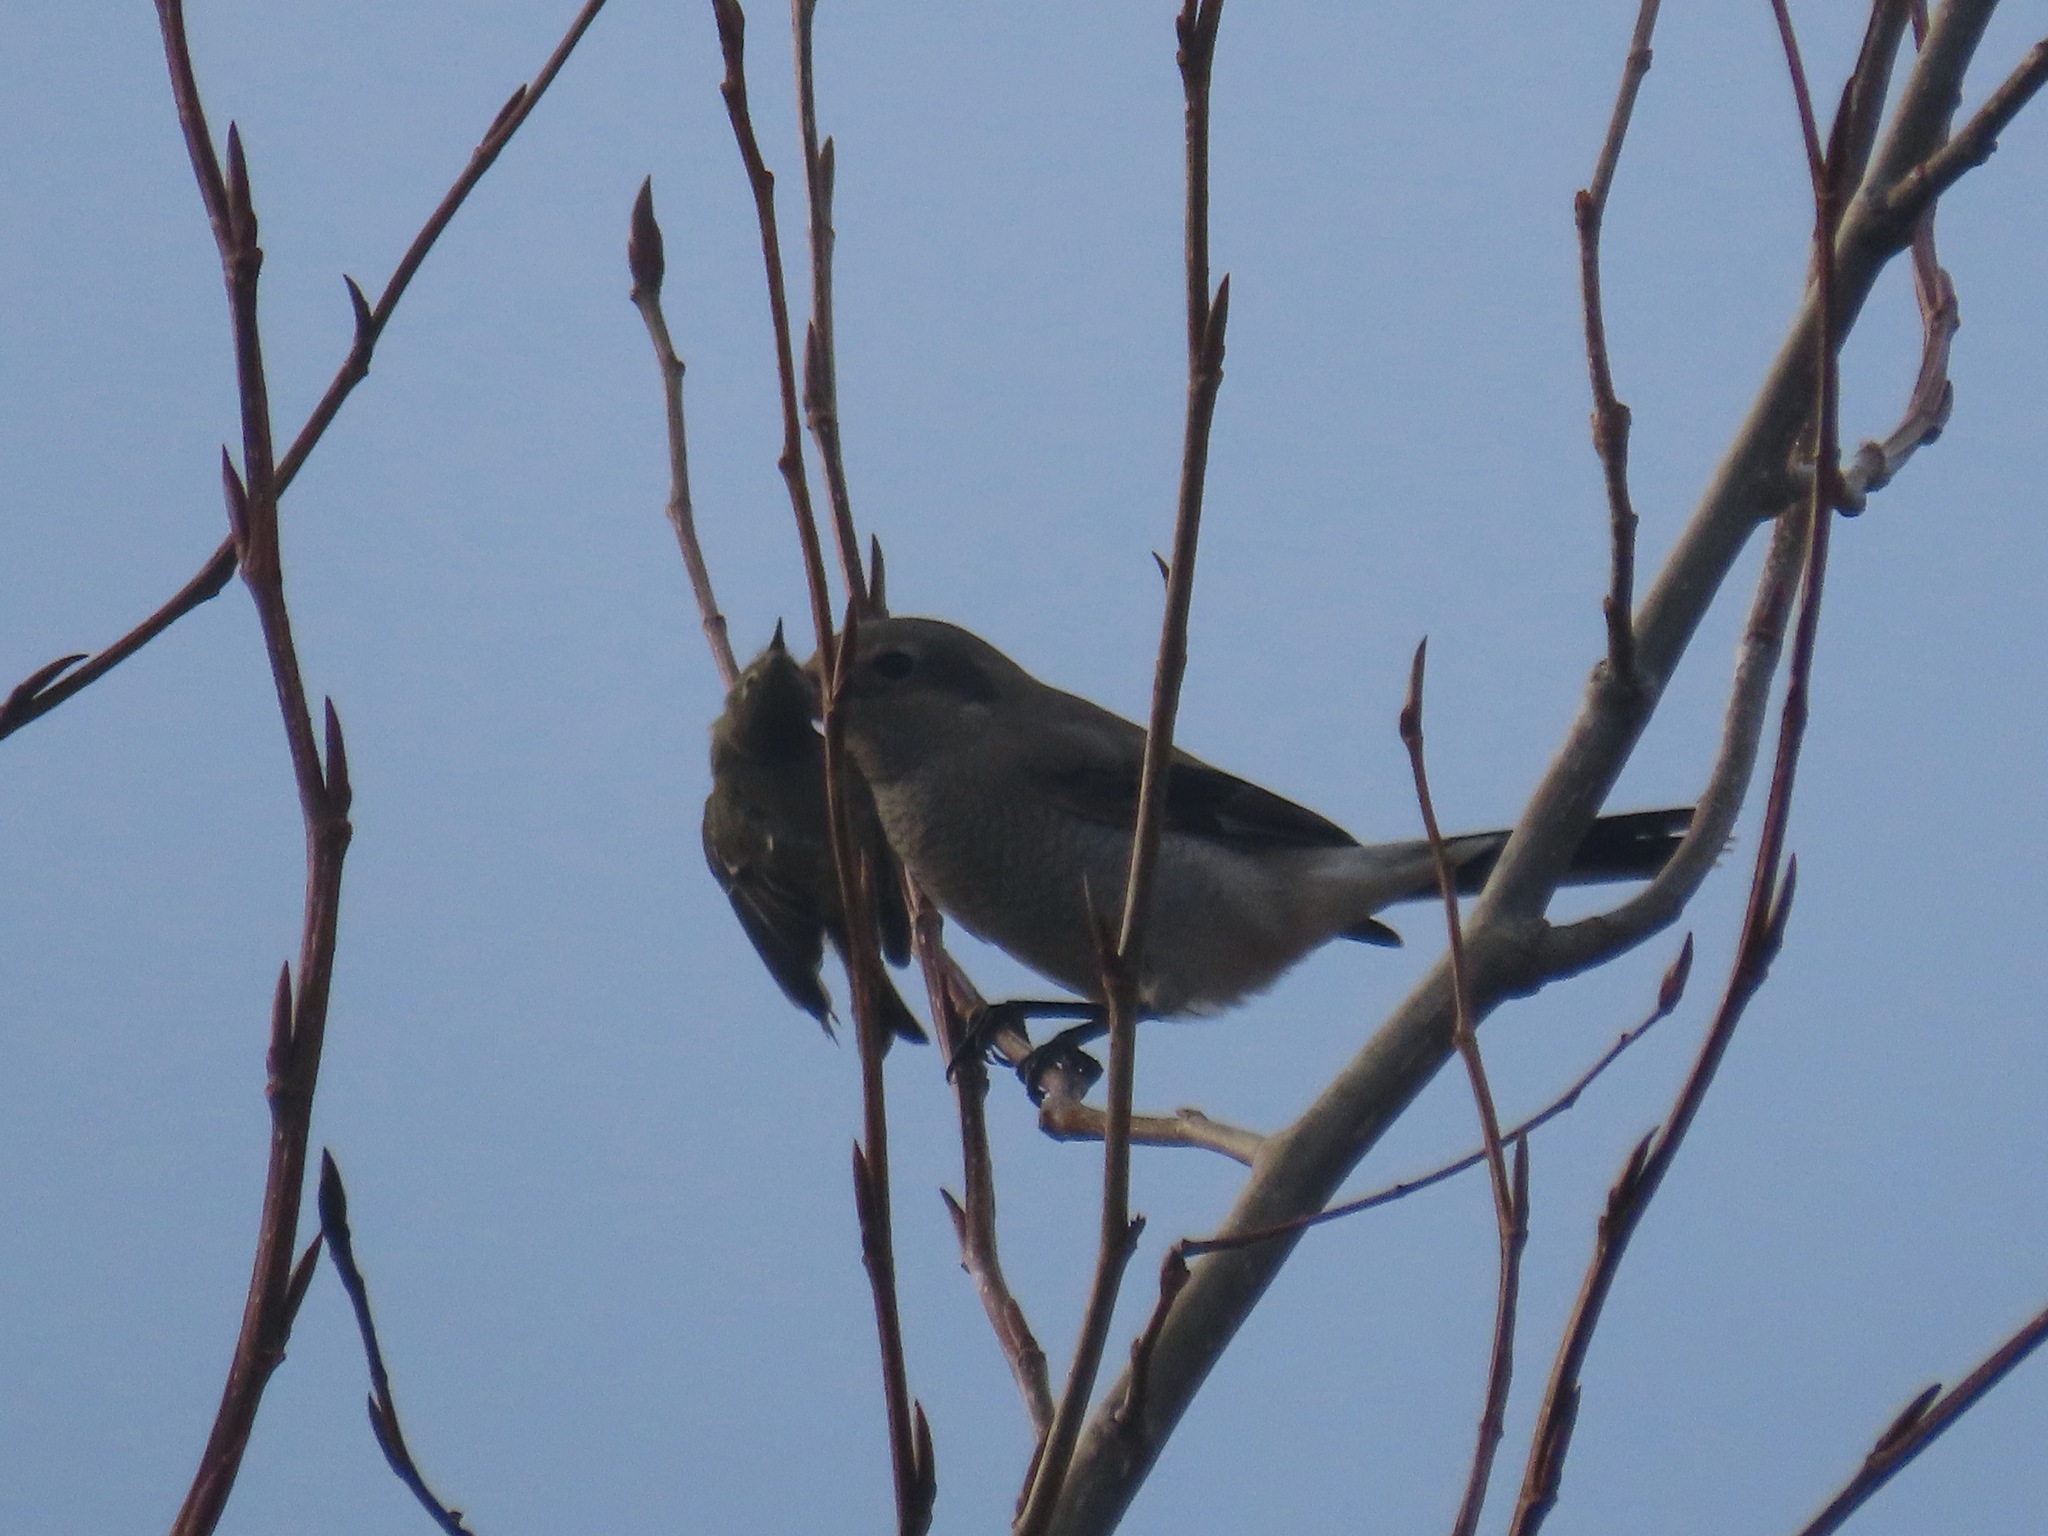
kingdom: Animalia
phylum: Chordata
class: Aves
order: Passeriformes
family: Laniidae
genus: Lanius
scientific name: Lanius borealis
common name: Northern shrike
